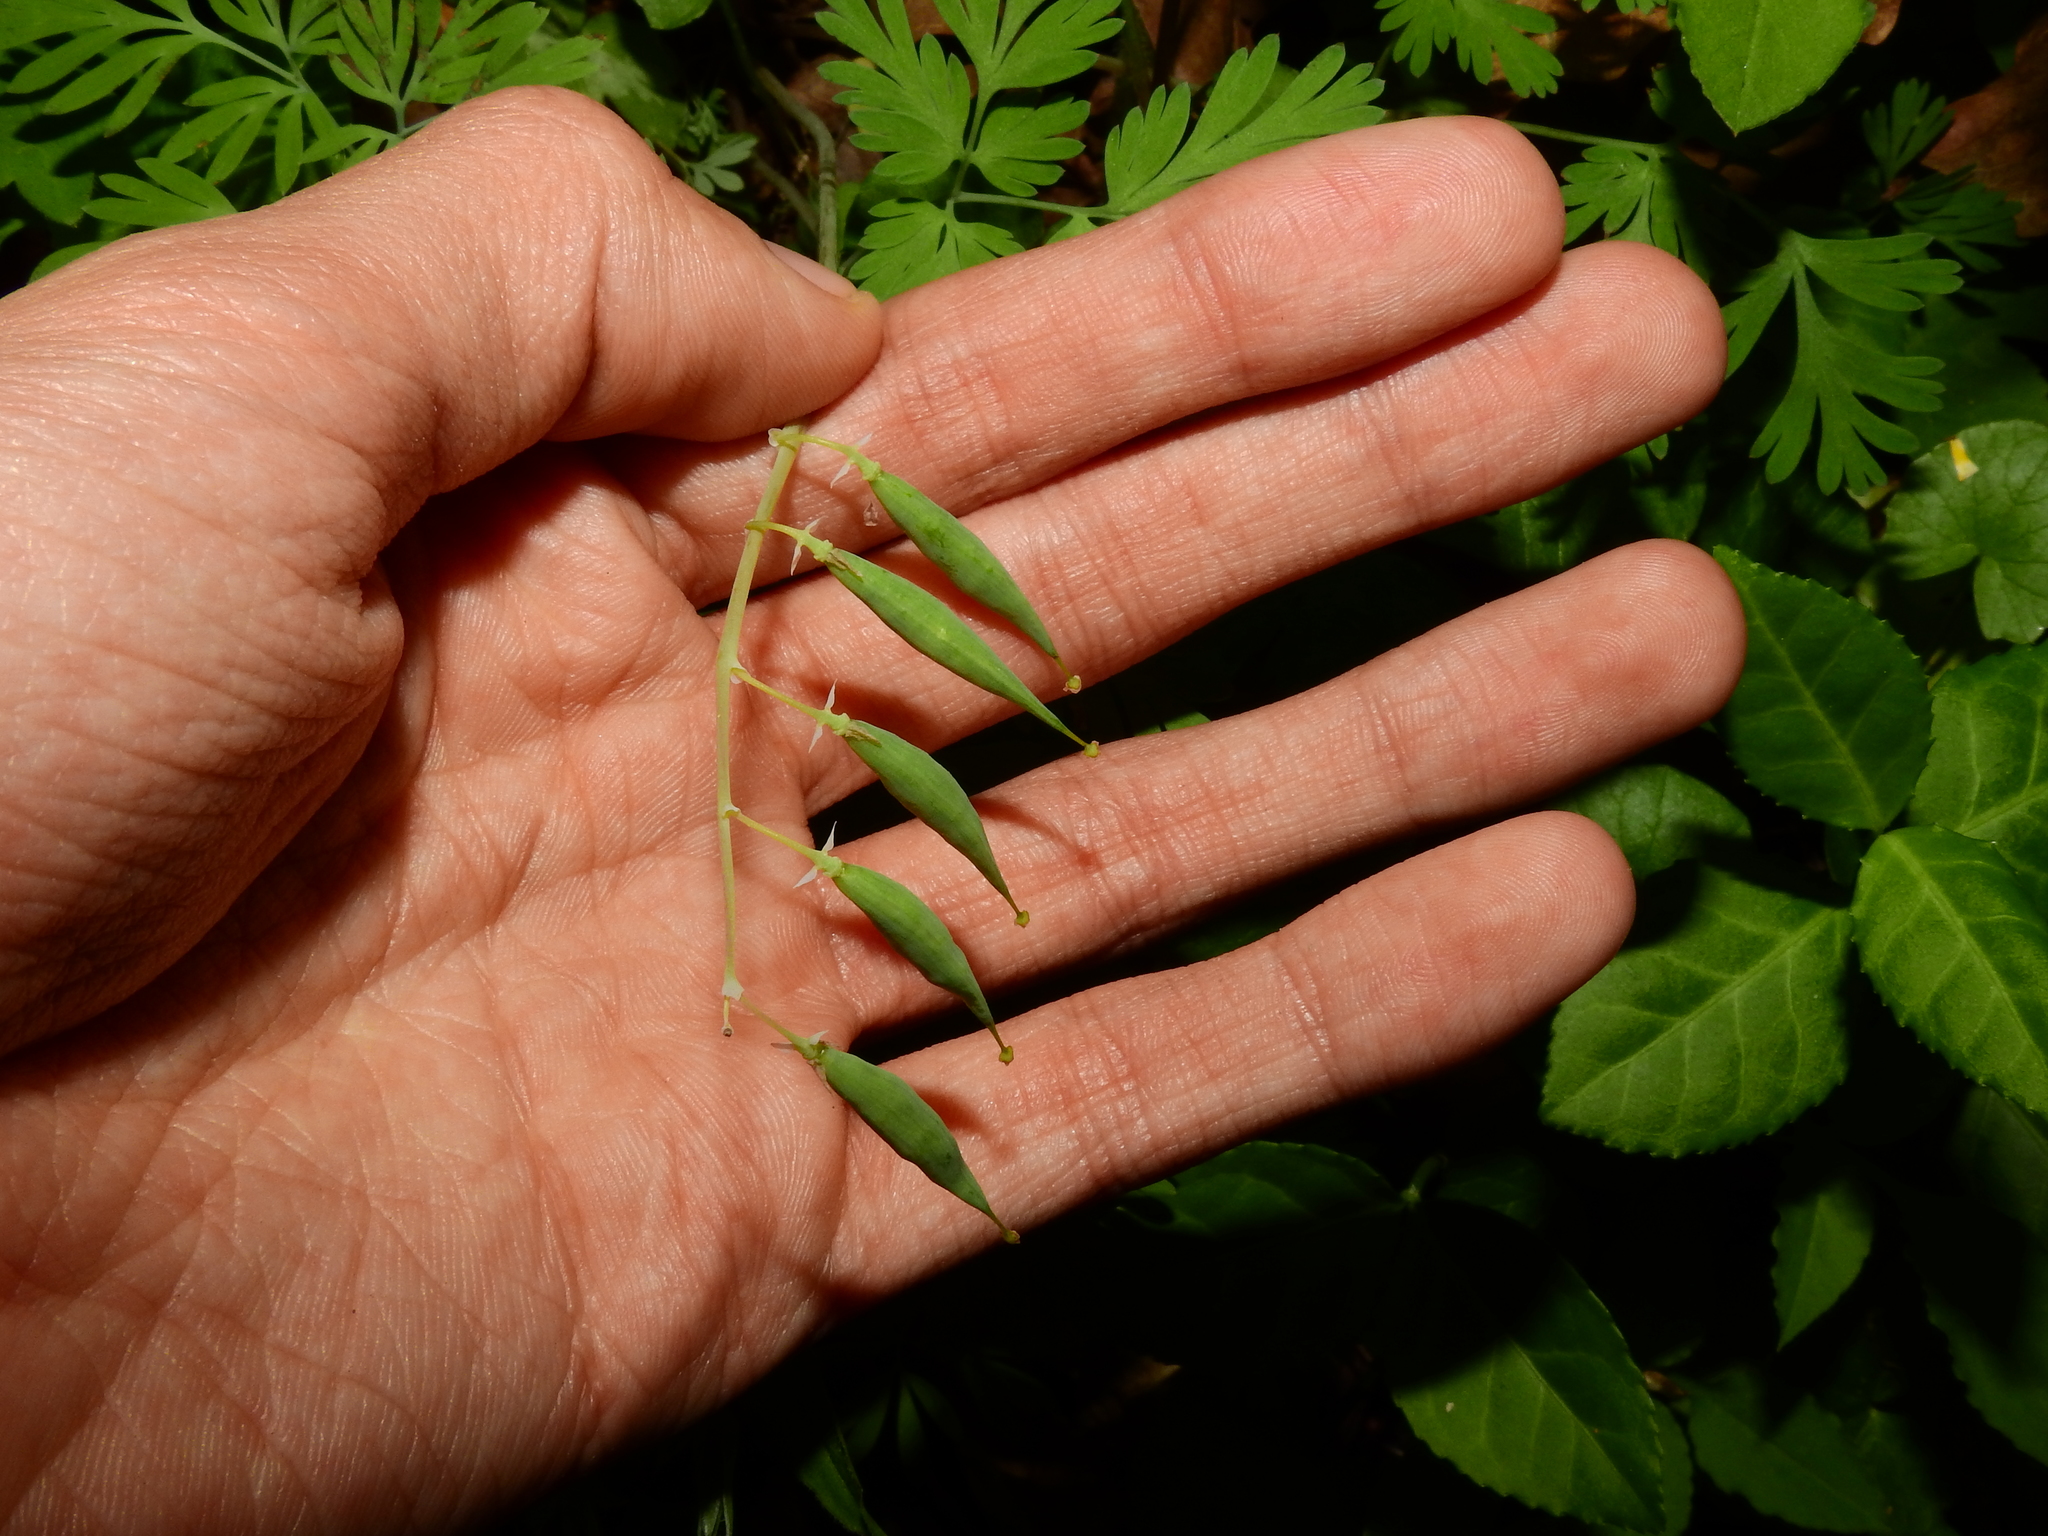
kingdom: Plantae
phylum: Tracheophyta
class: Magnoliopsida
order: Ranunculales
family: Papaveraceae
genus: Dicentra
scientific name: Dicentra
